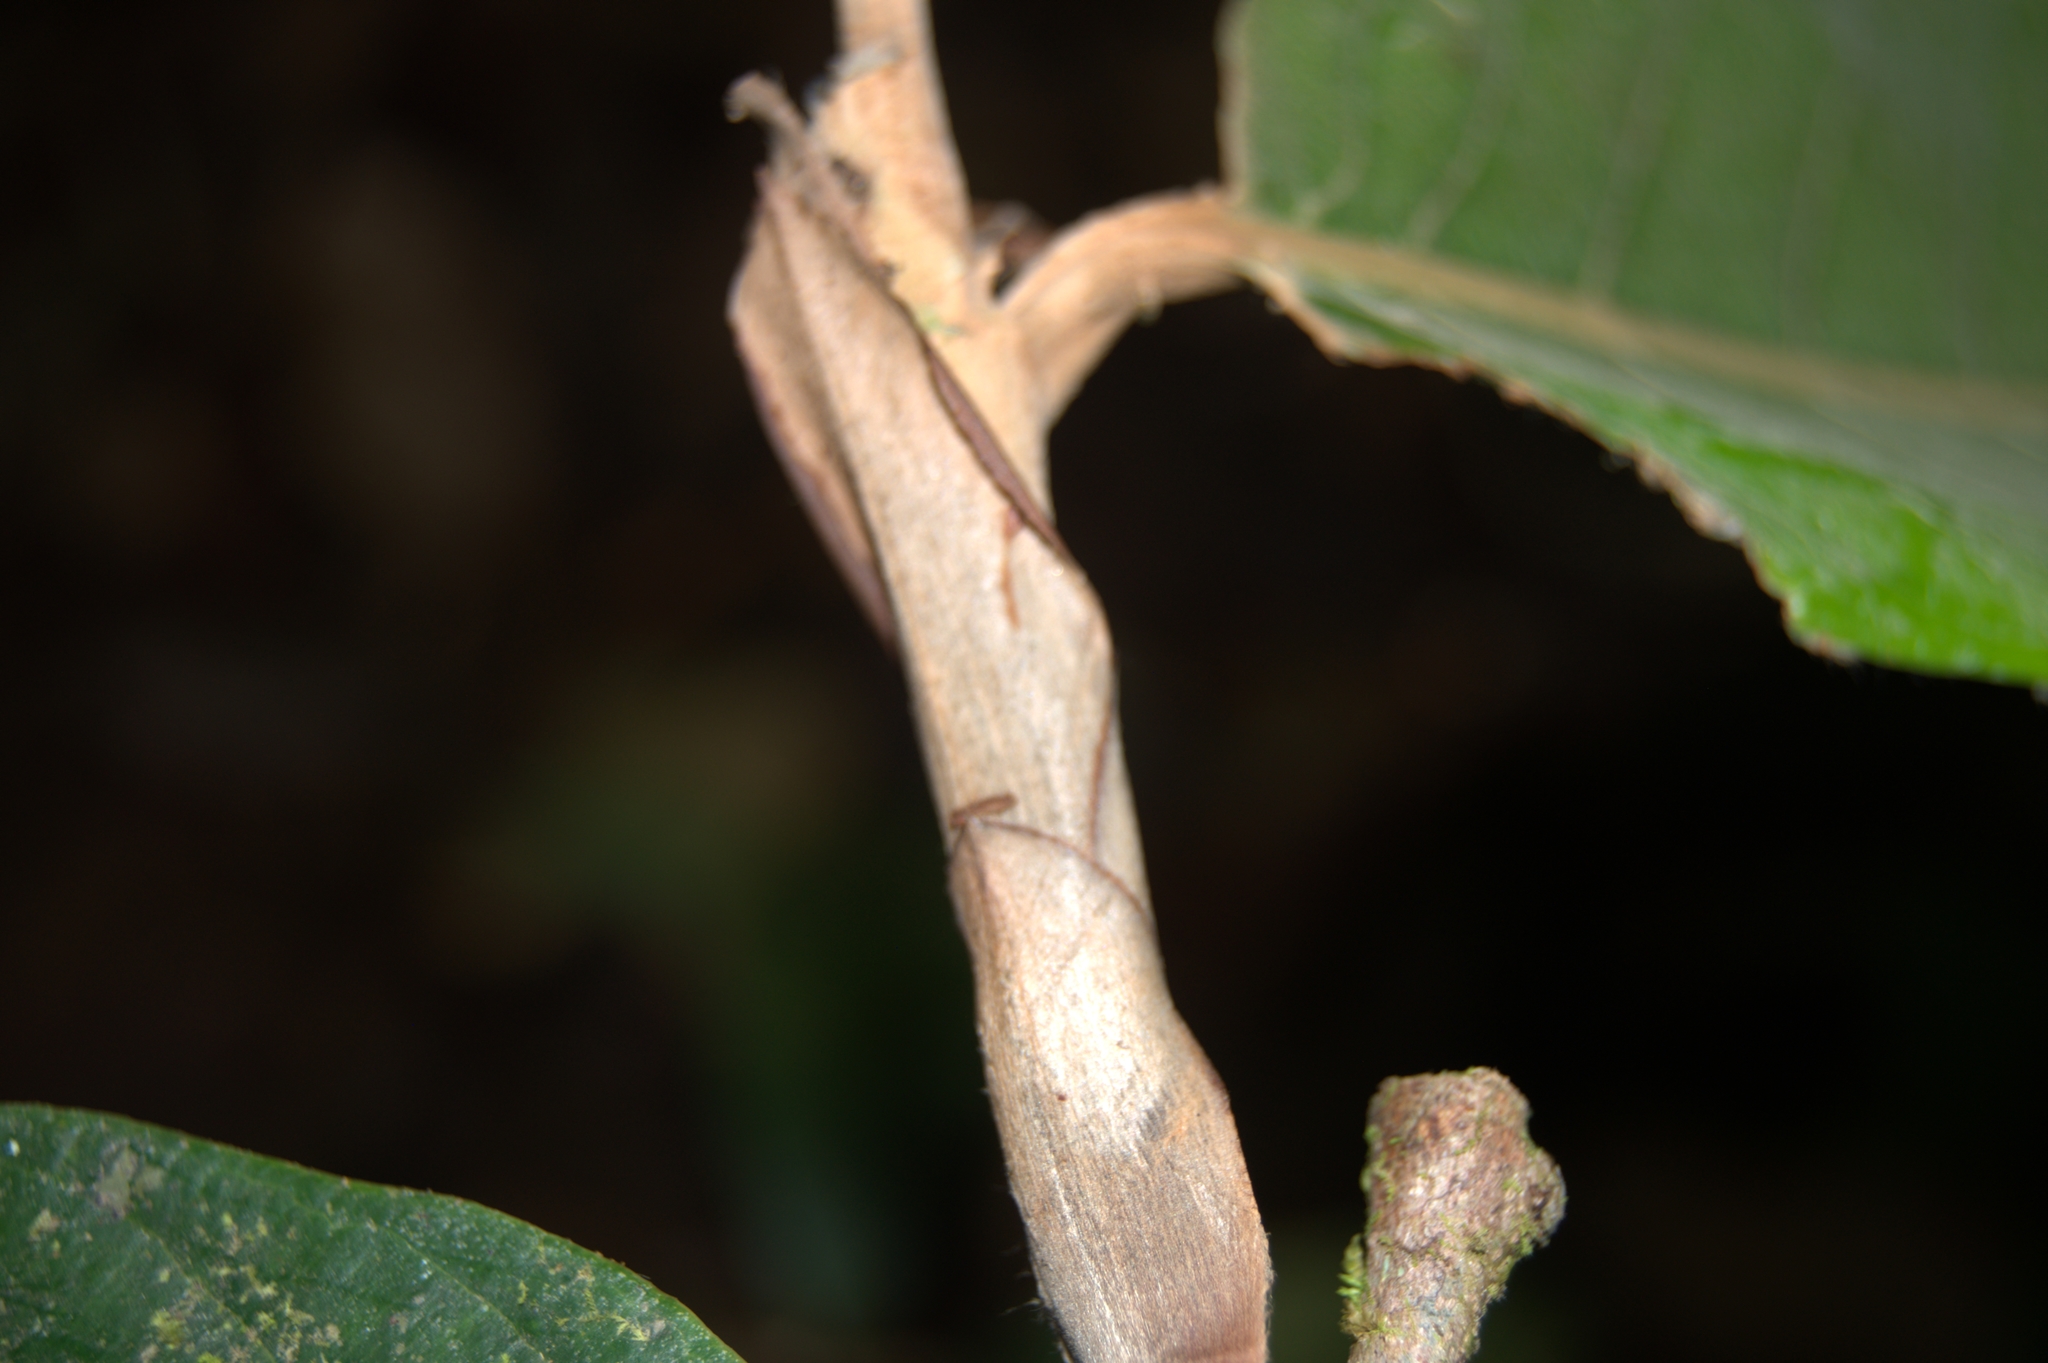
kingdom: Plantae
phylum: Tracheophyta
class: Magnoliopsida
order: Malpighiales
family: Chrysobalanaceae
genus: Moquilea
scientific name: Moquilea corniculata
